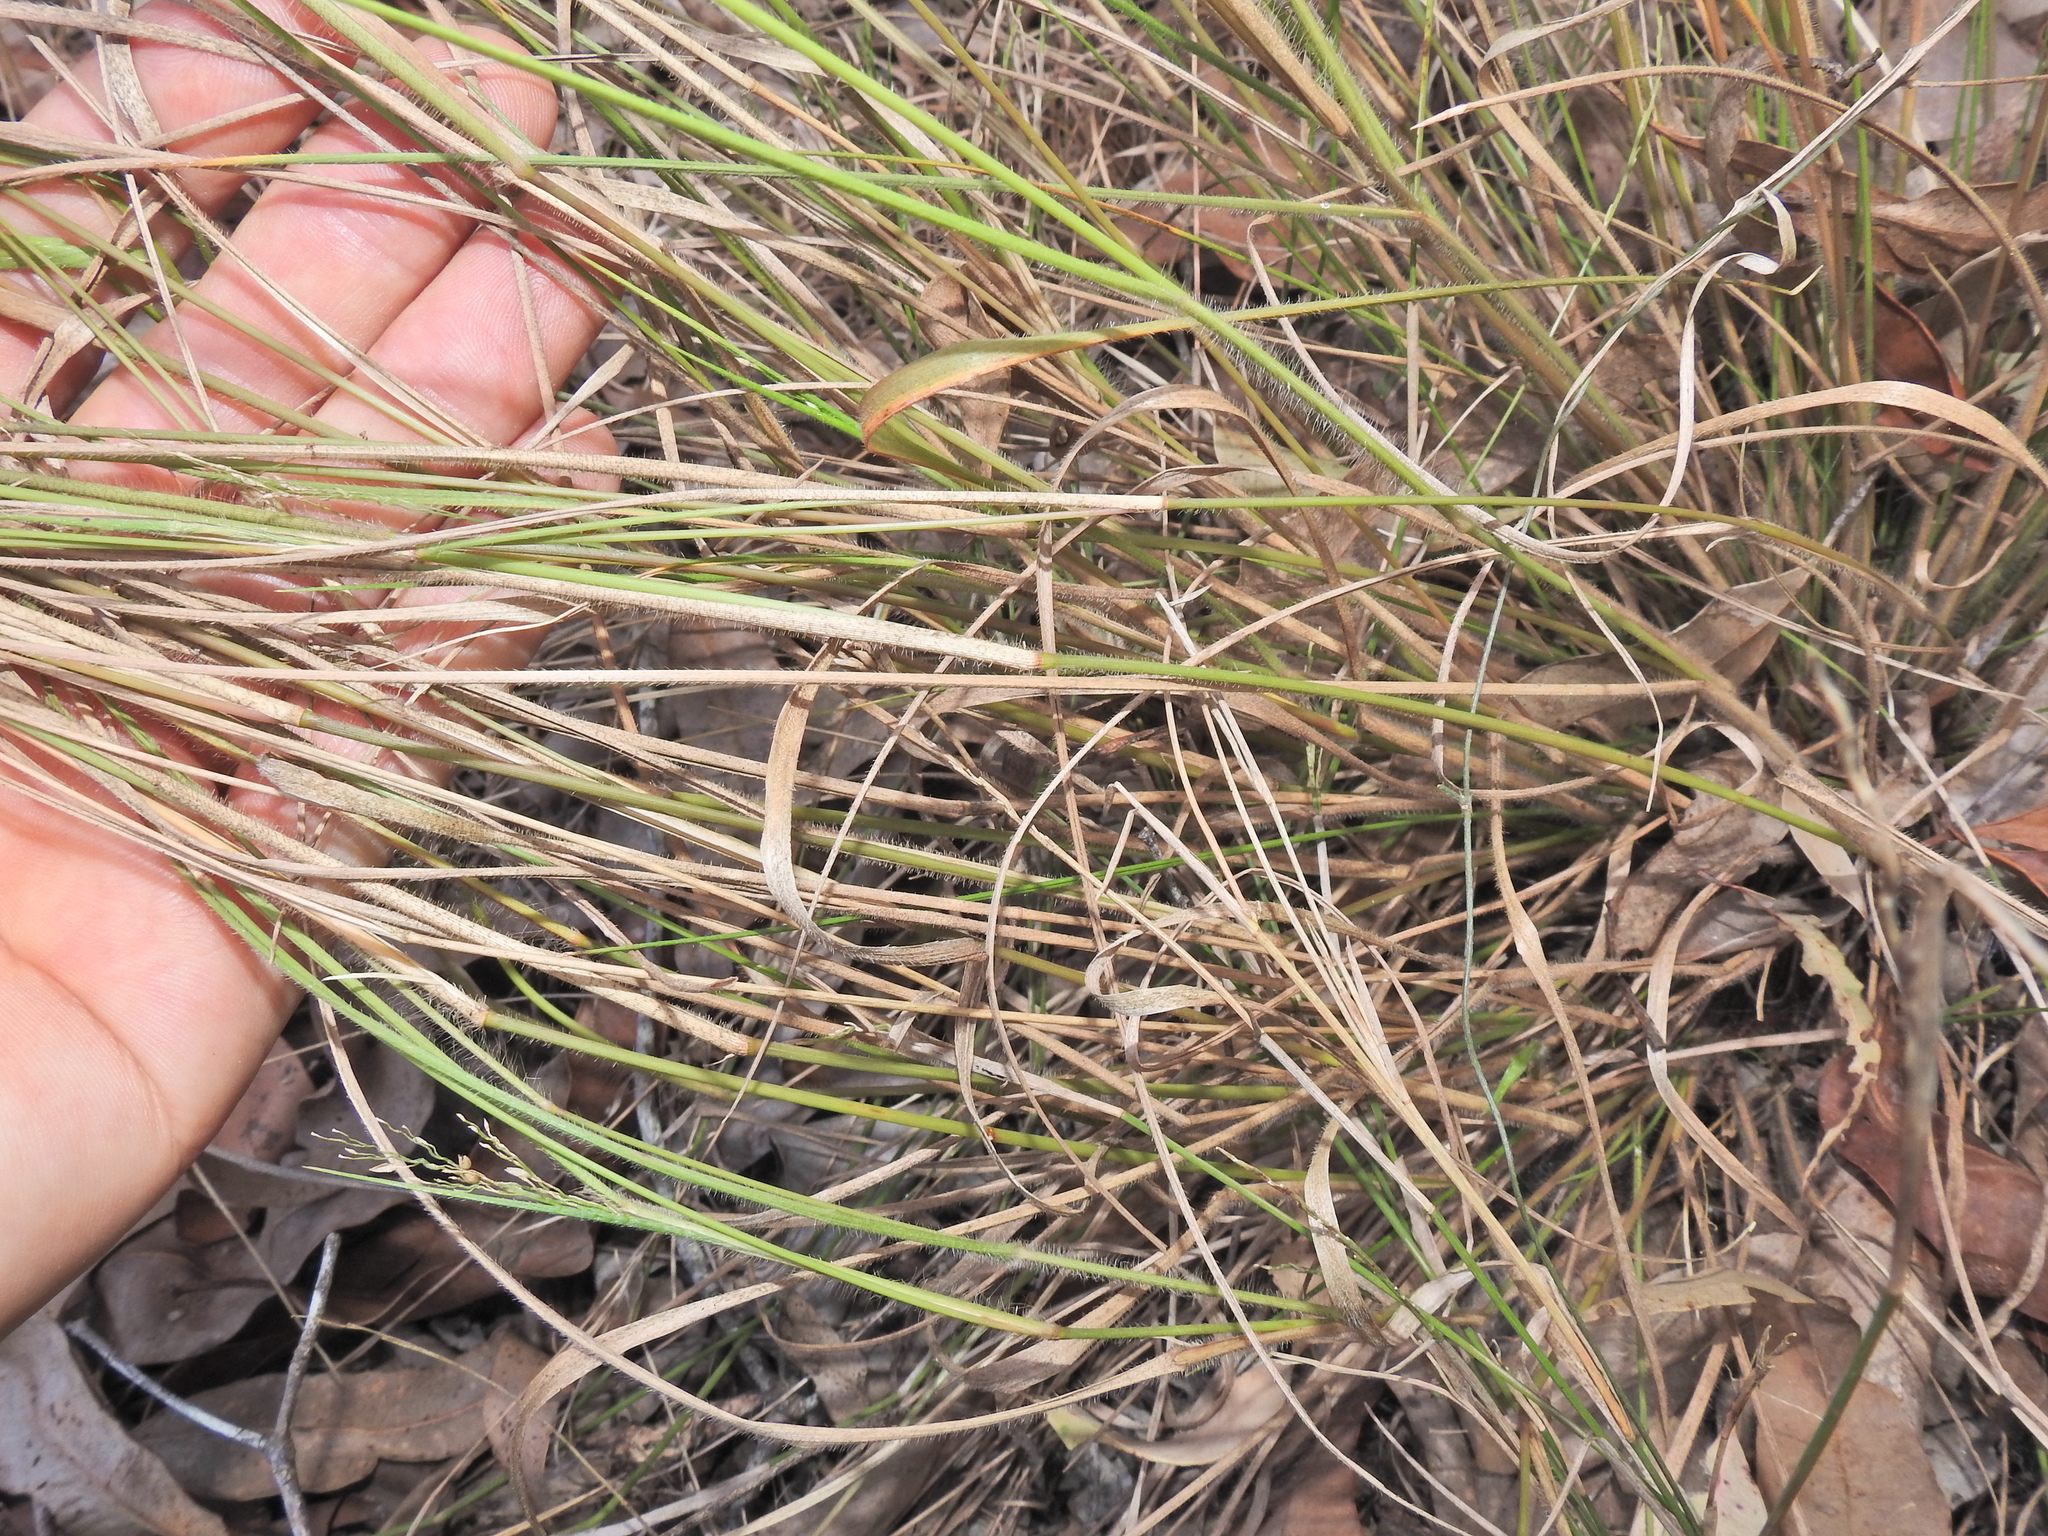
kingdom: Plantae
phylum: Tracheophyta
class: Liliopsida
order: Poales
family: Poaceae
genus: Panicum
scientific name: Panicum effusum
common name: Hairy panic grass
